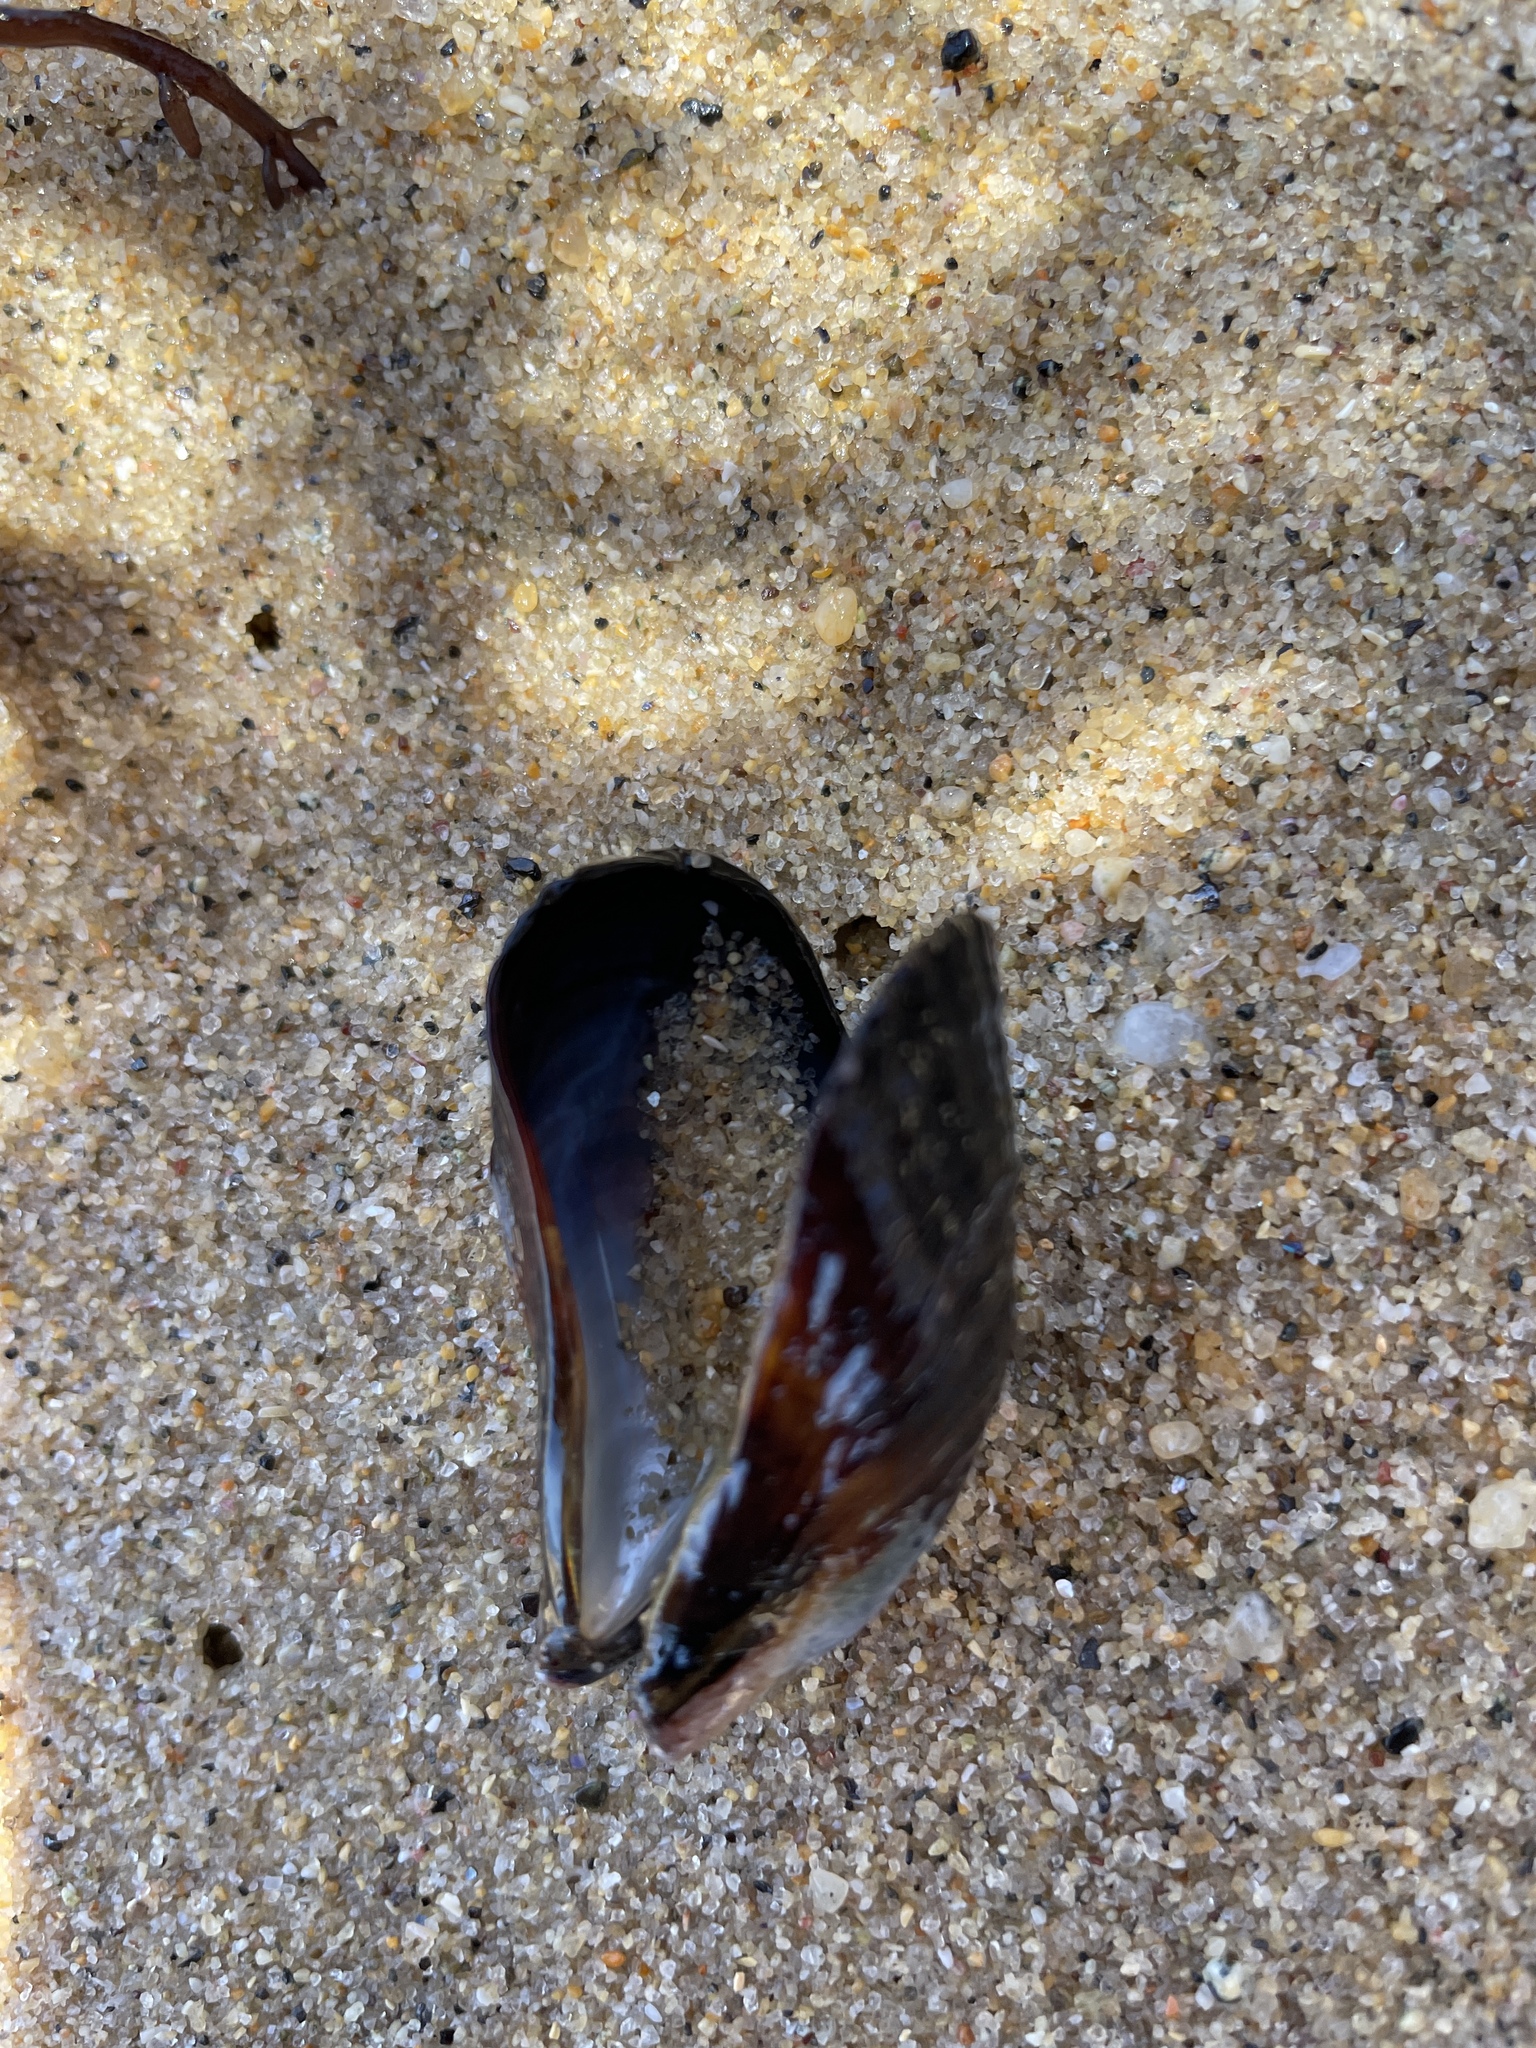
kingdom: Animalia
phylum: Mollusca
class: Bivalvia
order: Mytilida
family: Mytilidae
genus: Mytilus
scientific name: Mytilus californianus
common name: California mussel
